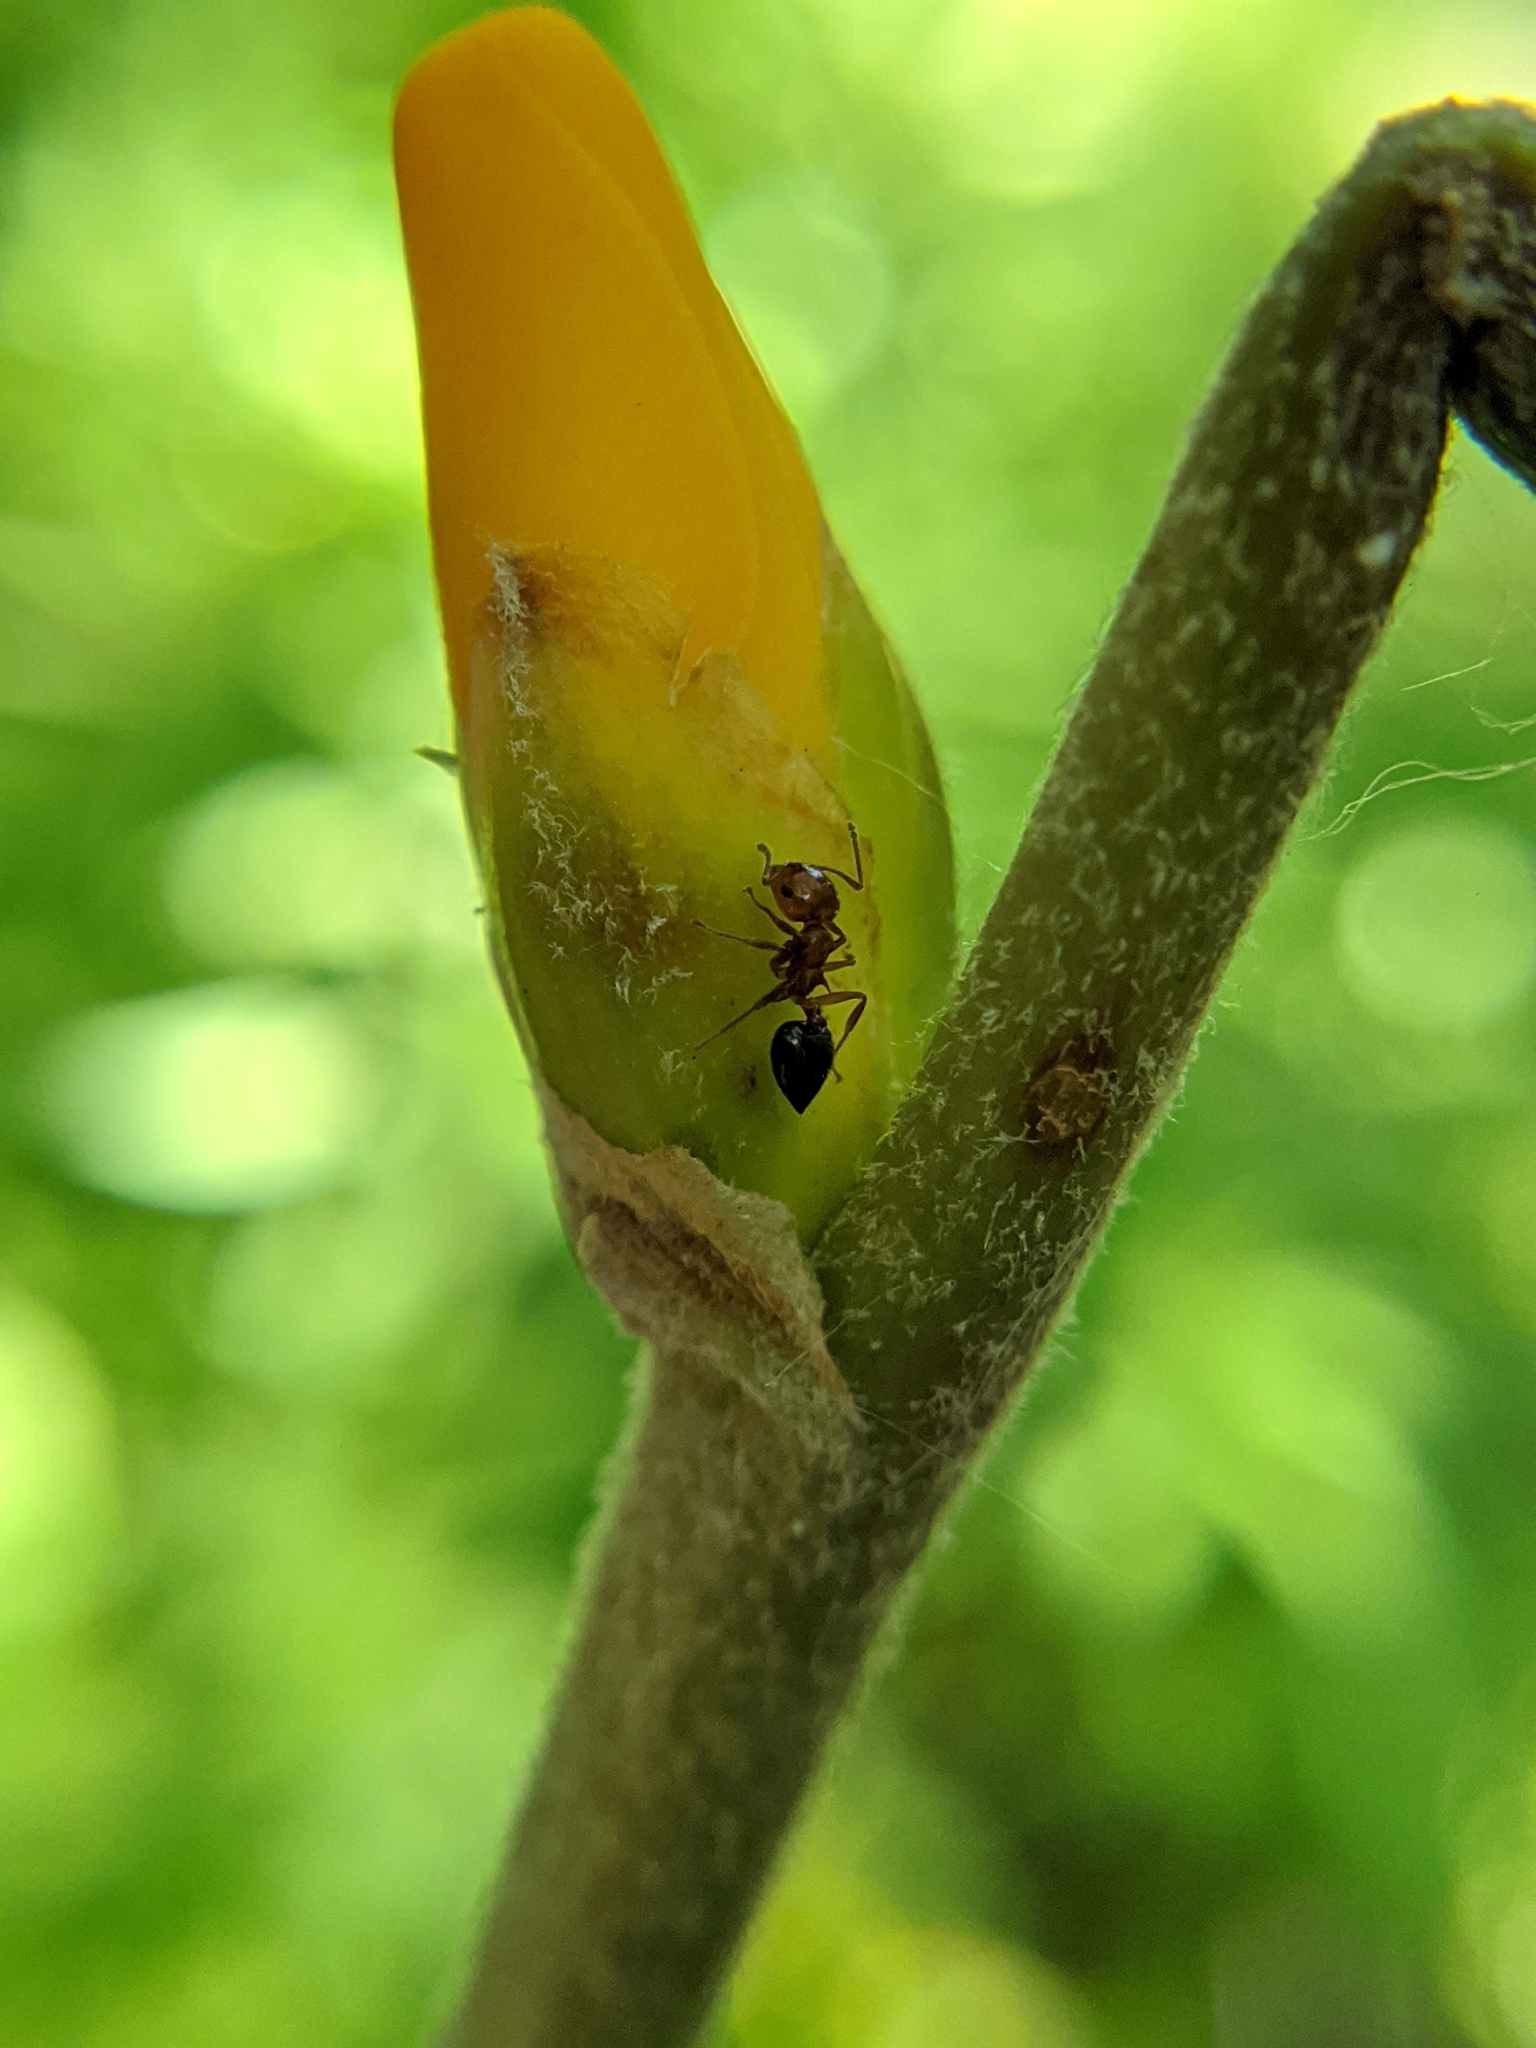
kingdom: Animalia
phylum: Arthropoda
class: Insecta
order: Hymenoptera
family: Formicidae
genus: Crematogaster
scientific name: Crematogaster laeviuscula
